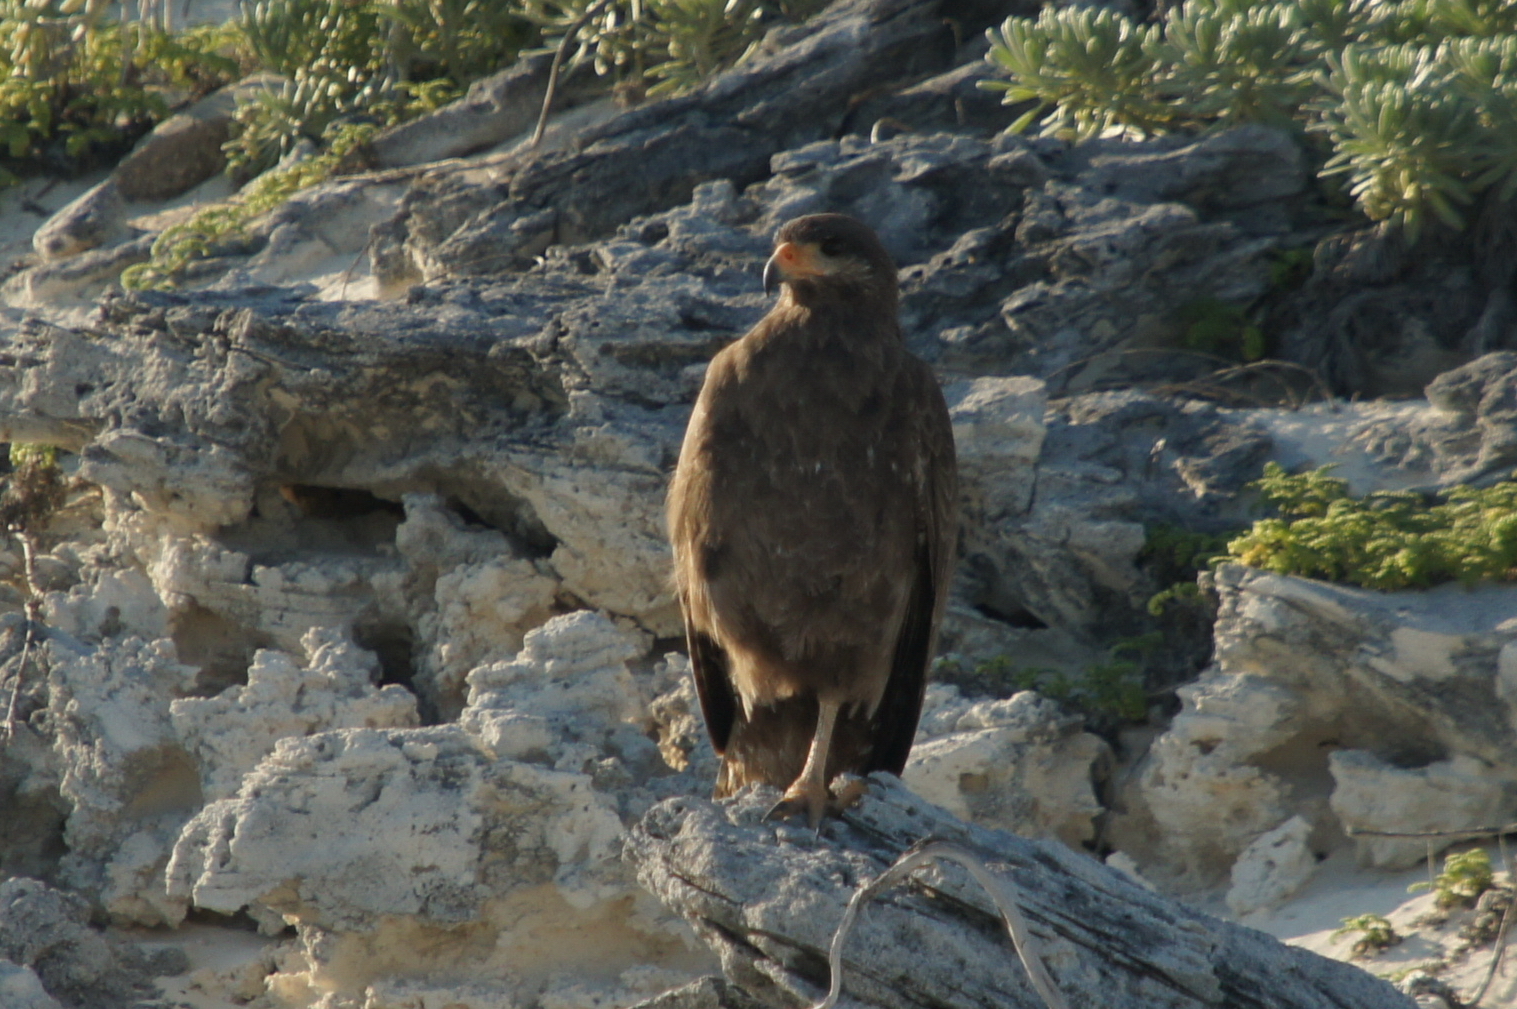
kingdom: Animalia
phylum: Chordata
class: Aves
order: Accipitriformes
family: Accipitridae
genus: Buteogallus
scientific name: Buteogallus gundlachii
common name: Cuban black hawk
